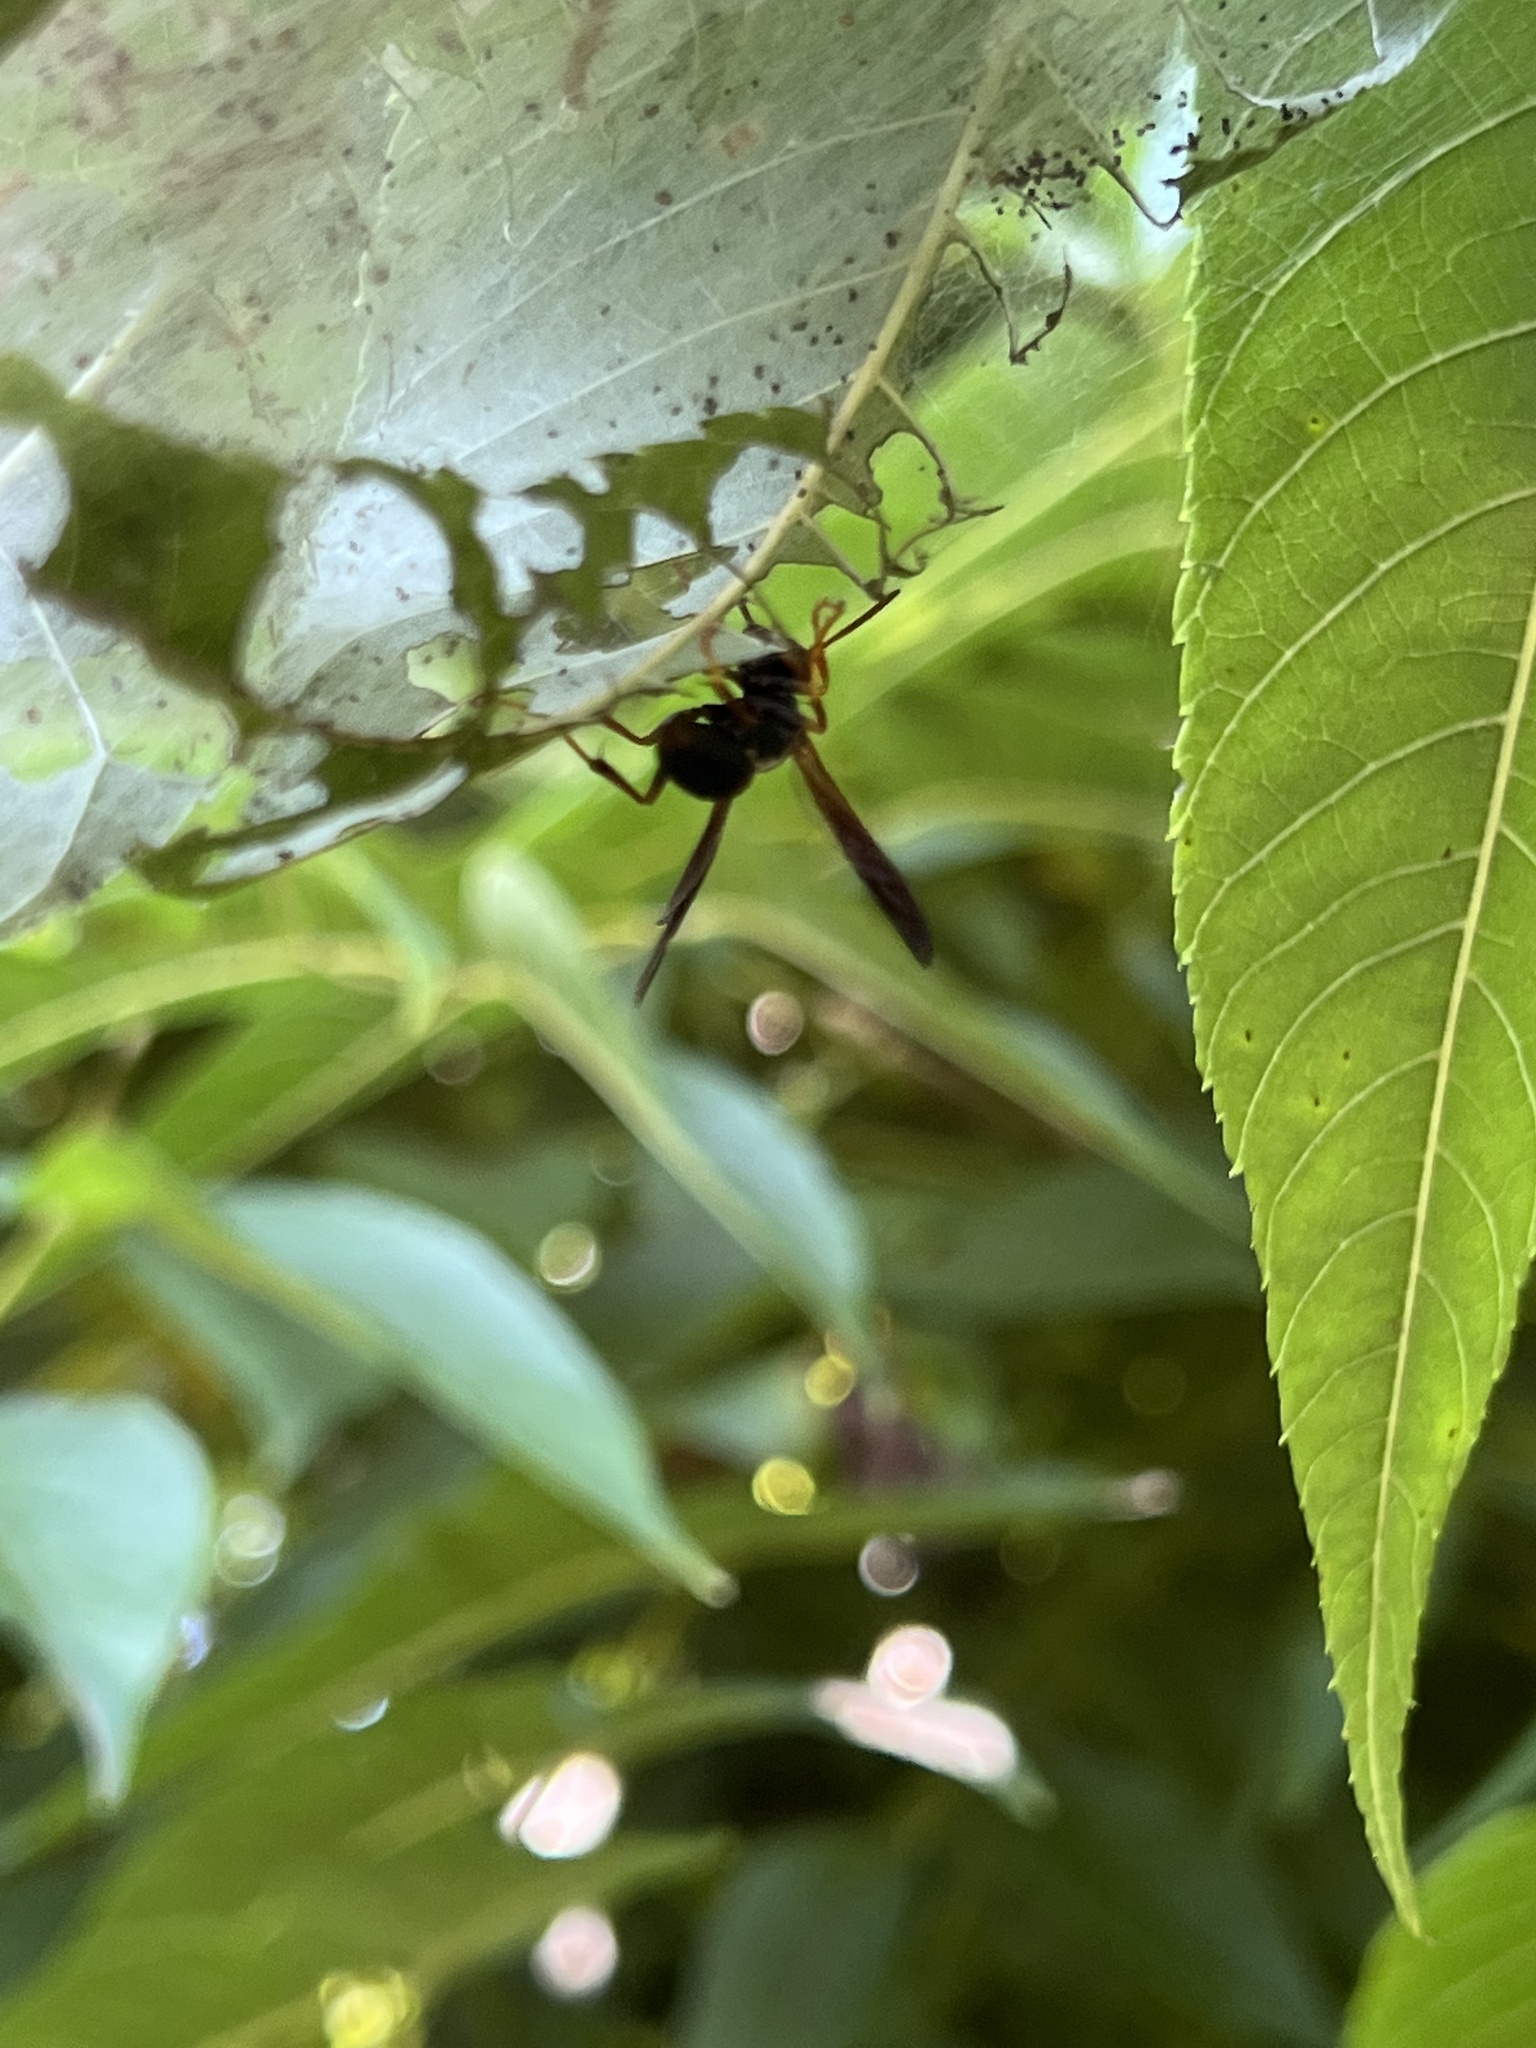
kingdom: Animalia
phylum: Arthropoda
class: Insecta
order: Hymenoptera
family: Eumenidae
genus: Polistes
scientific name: Polistes fuscatus
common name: Dark paper wasp
